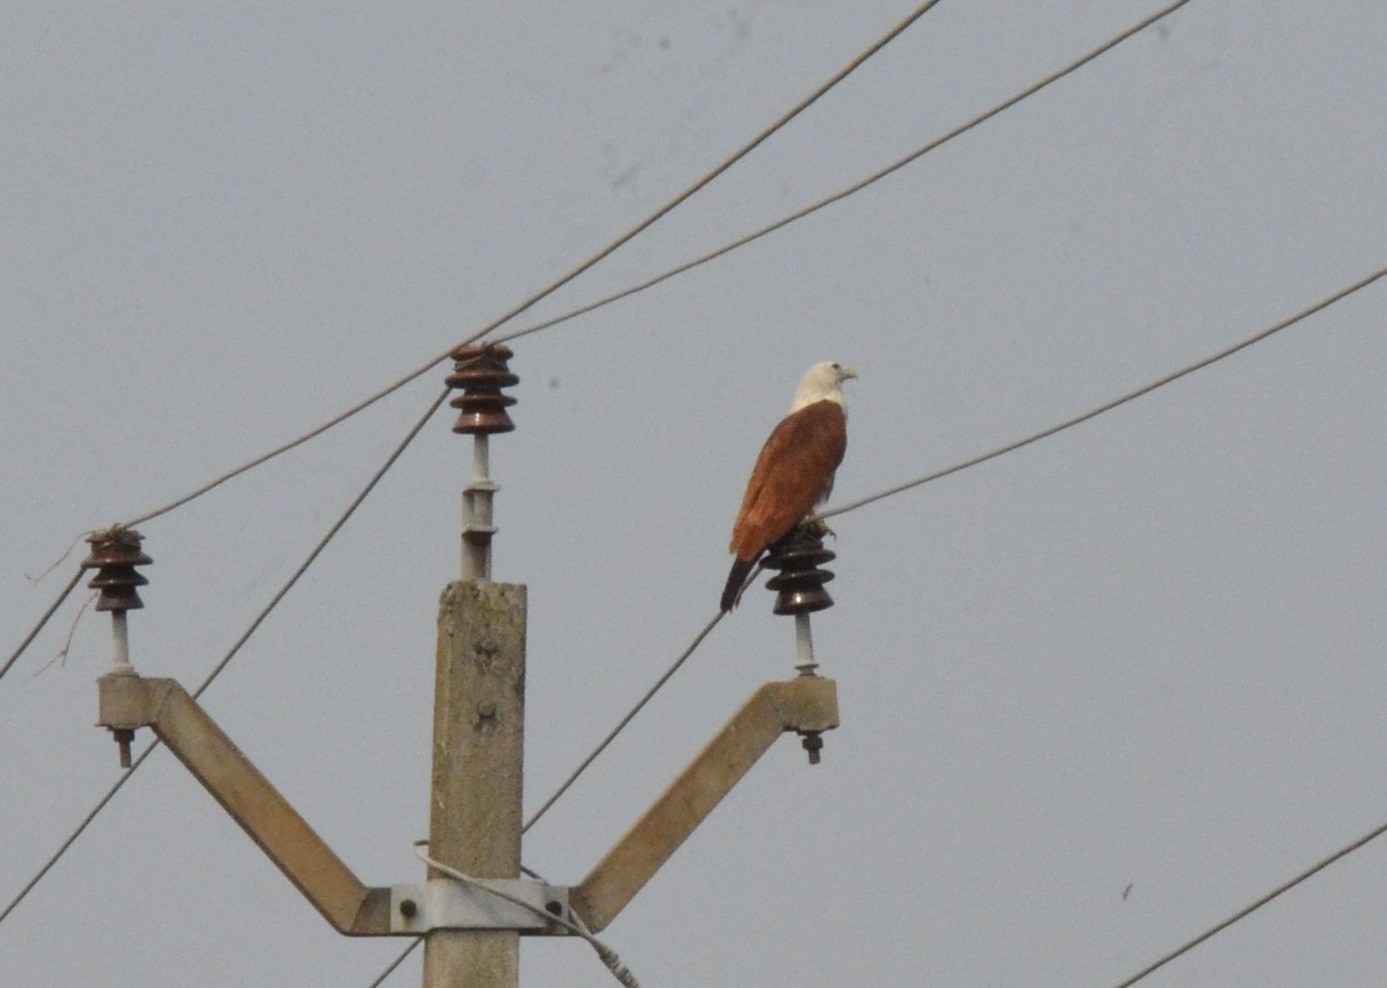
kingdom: Animalia
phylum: Chordata
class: Aves
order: Accipitriformes
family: Accipitridae
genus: Haliastur
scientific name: Haliastur indus
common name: Brahminy kite
